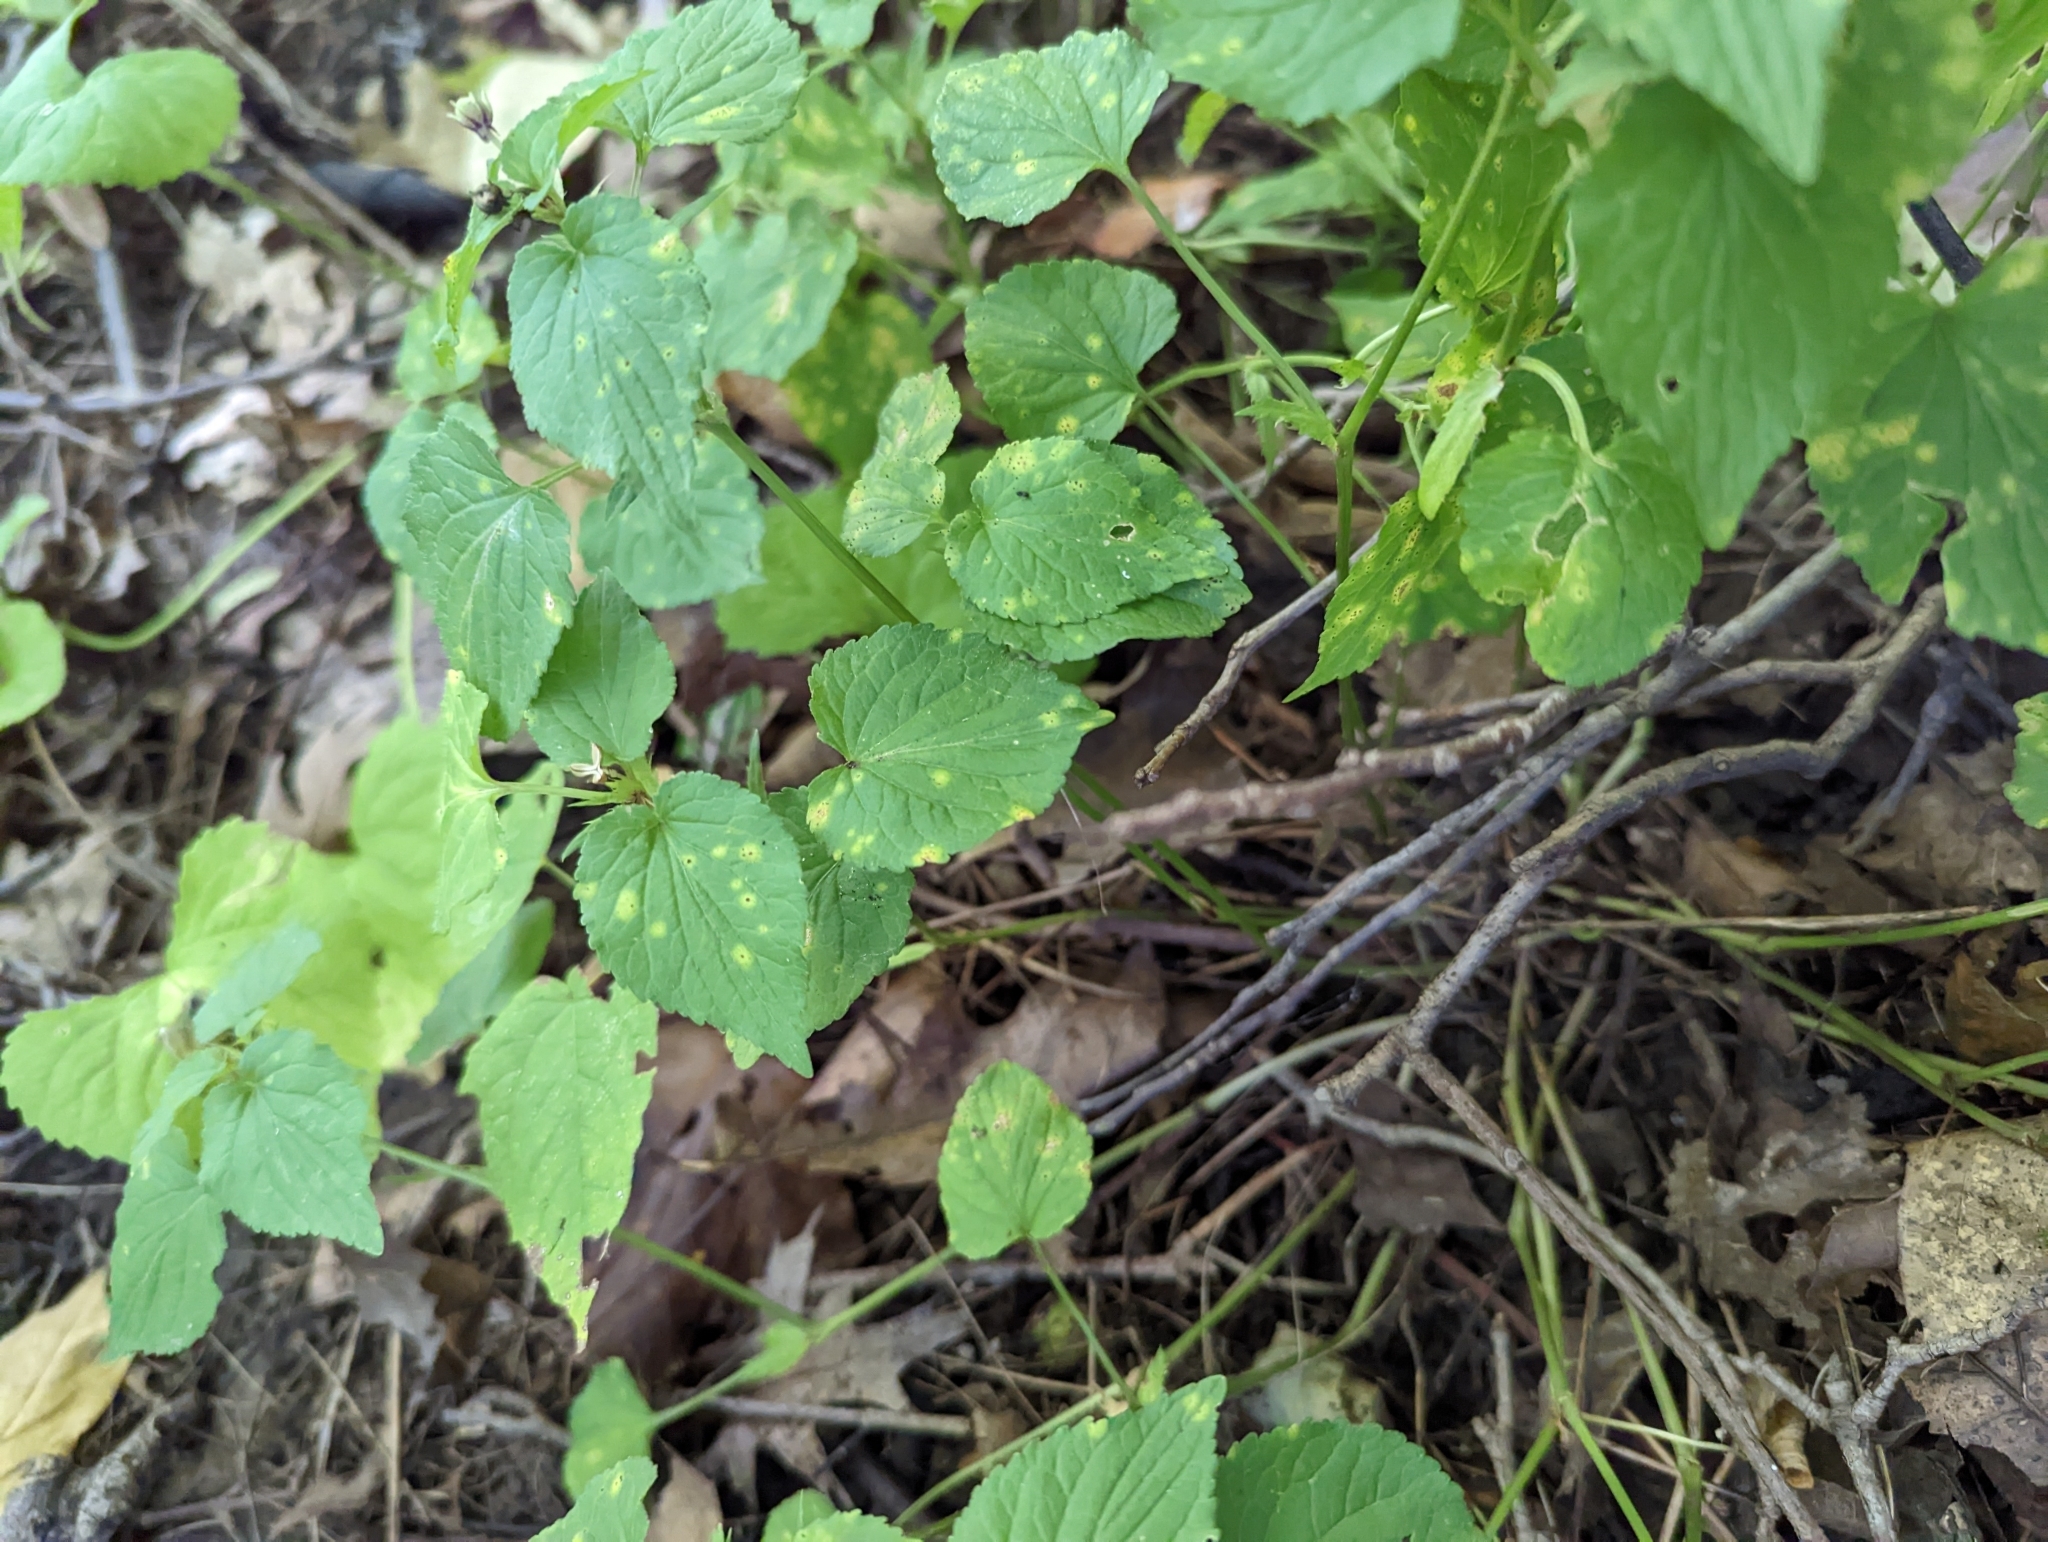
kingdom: Plantae
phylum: Tracheophyta
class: Magnoliopsida
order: Malpighiales
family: Violaceae
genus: Viola
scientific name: Viola canadensis
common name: Canada violet
